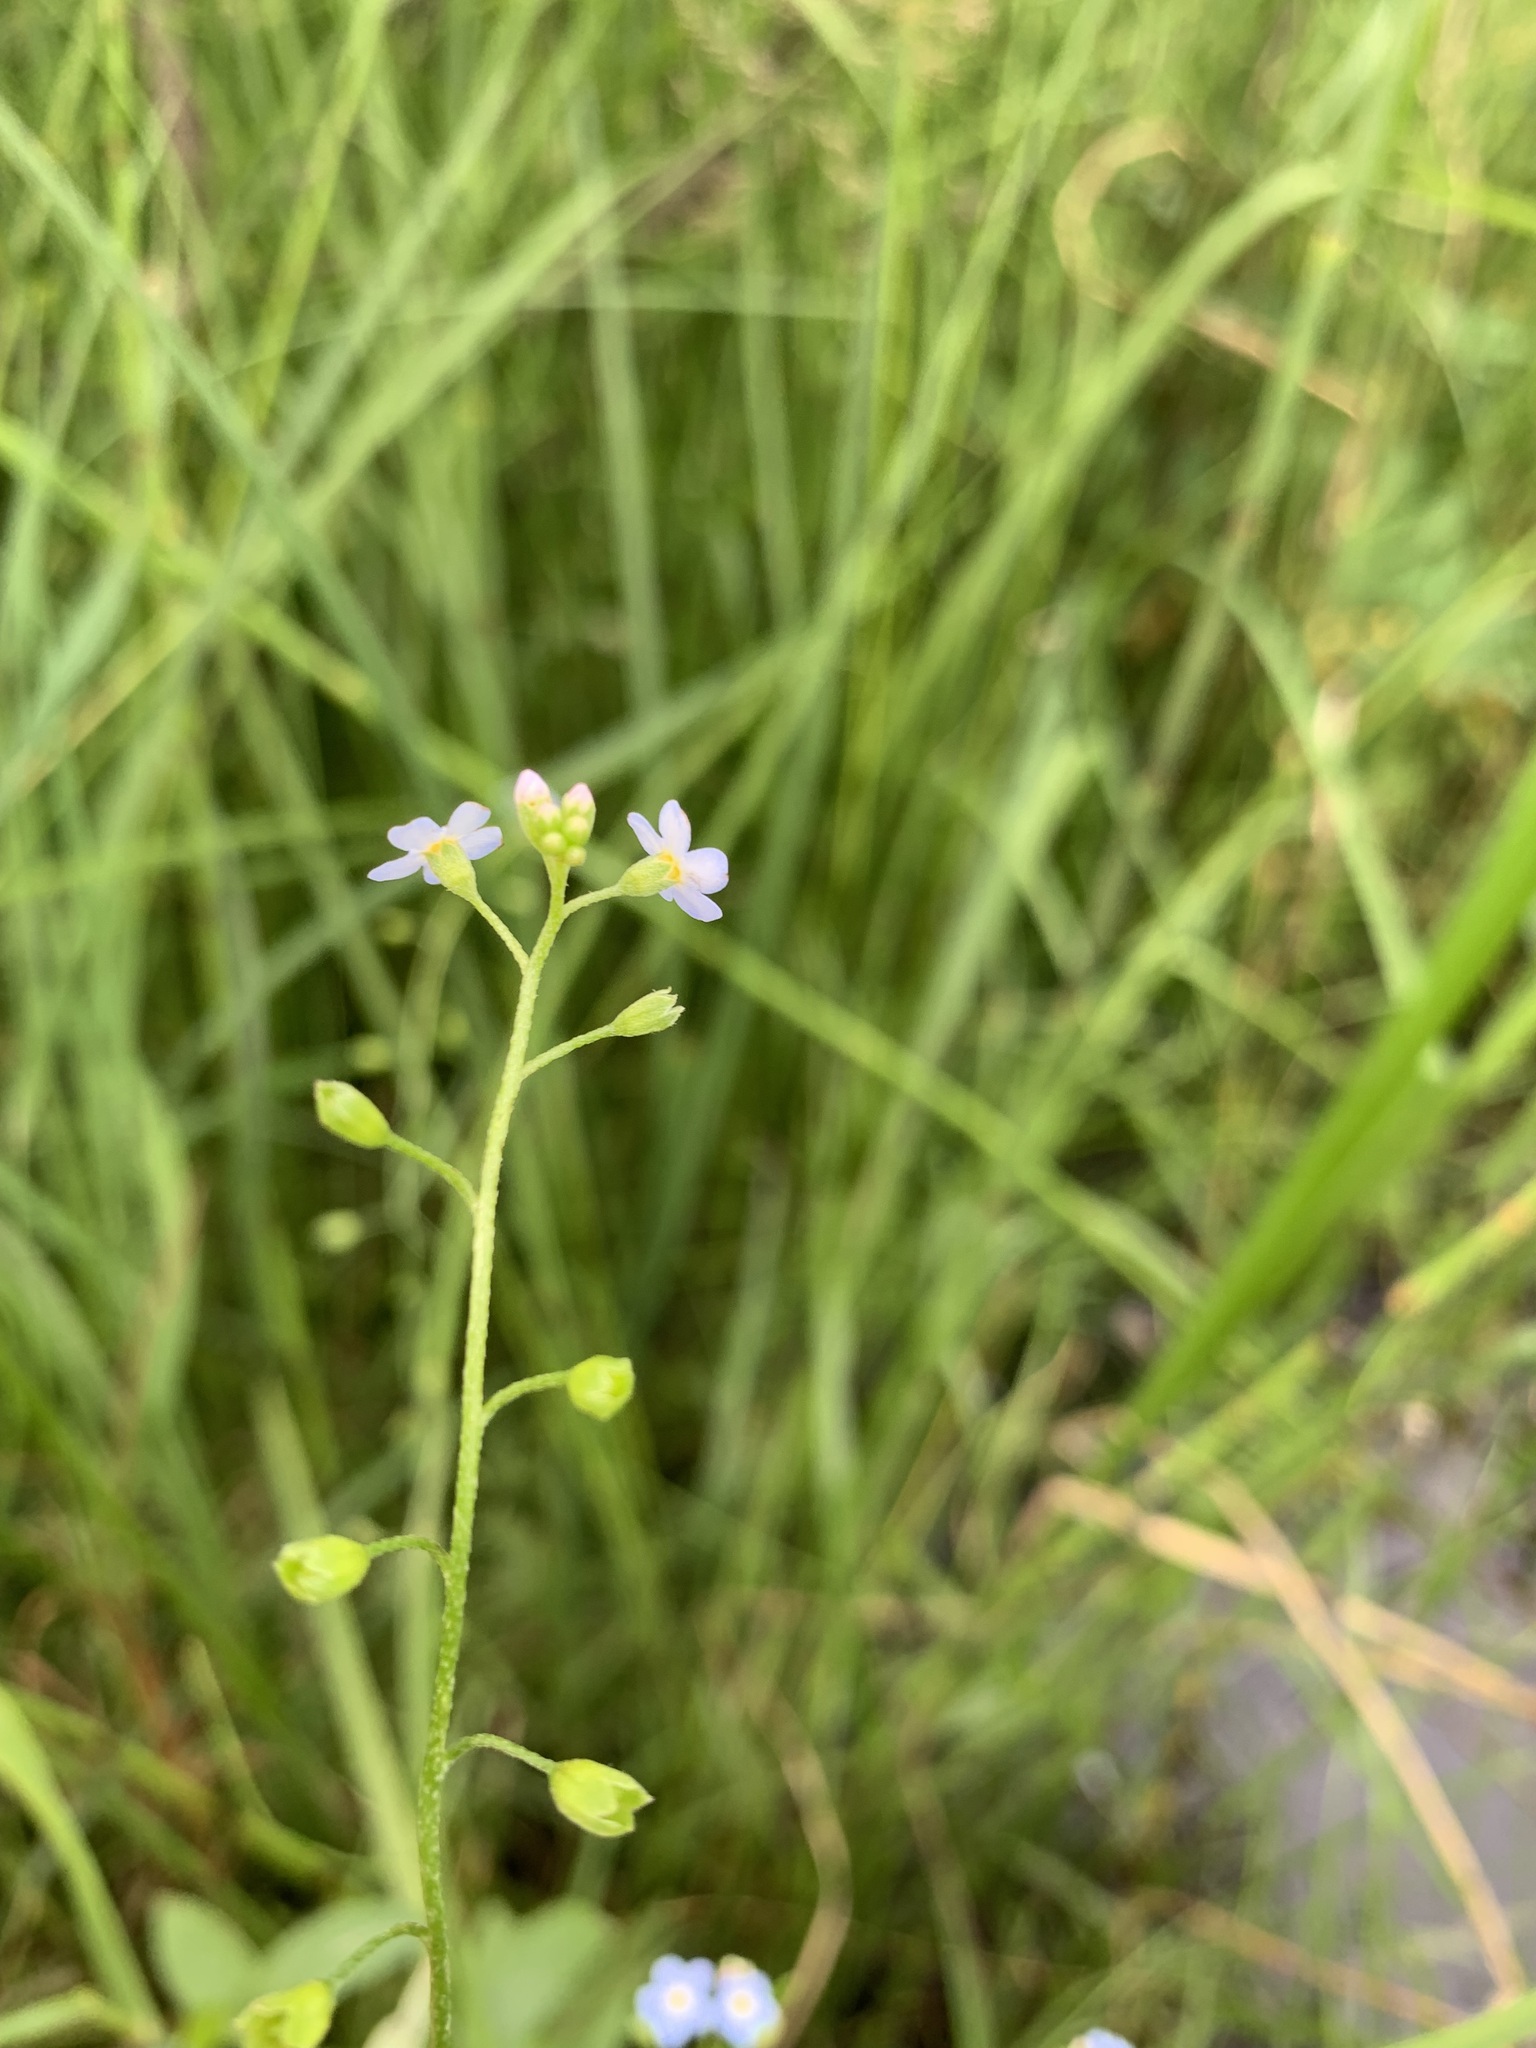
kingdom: Plantae
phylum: Tracheophyta
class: Magnoliopsida
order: Boraginales
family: Boraginaceae
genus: Myosotis
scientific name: Myosotis scorpioides
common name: Water forget-me-not
